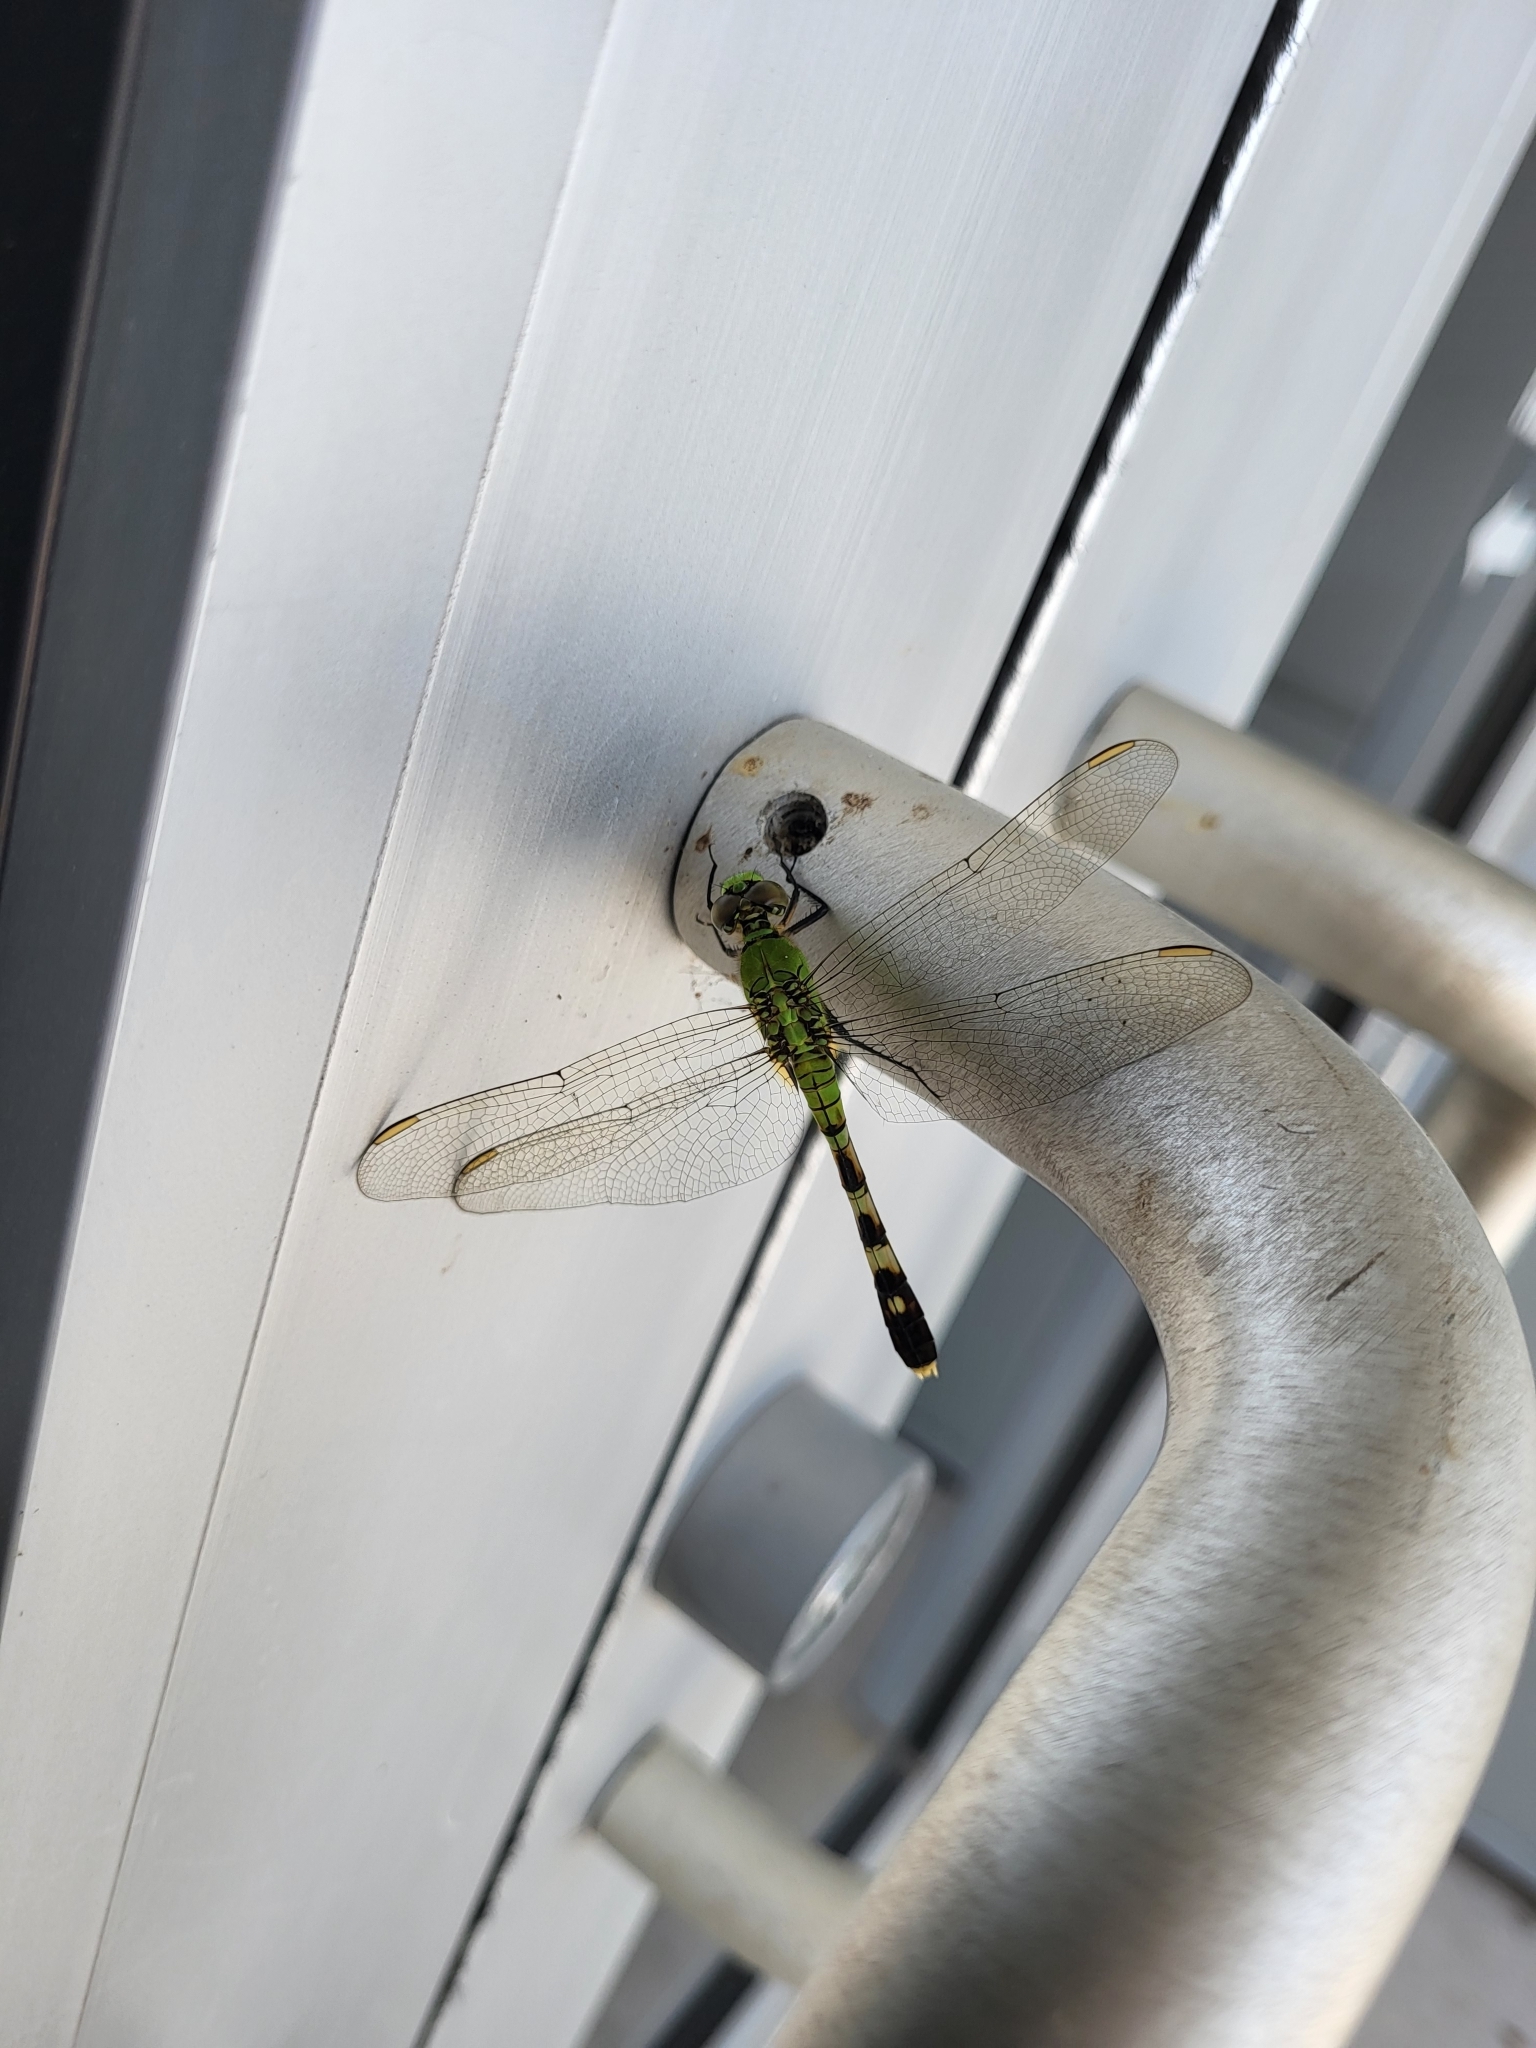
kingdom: Animalia
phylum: Arthropoda
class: Insecta
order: Odonata
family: Libellulidae
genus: Erythemis
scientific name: Erythemis simplicicollis
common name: Eastern pondhawk
